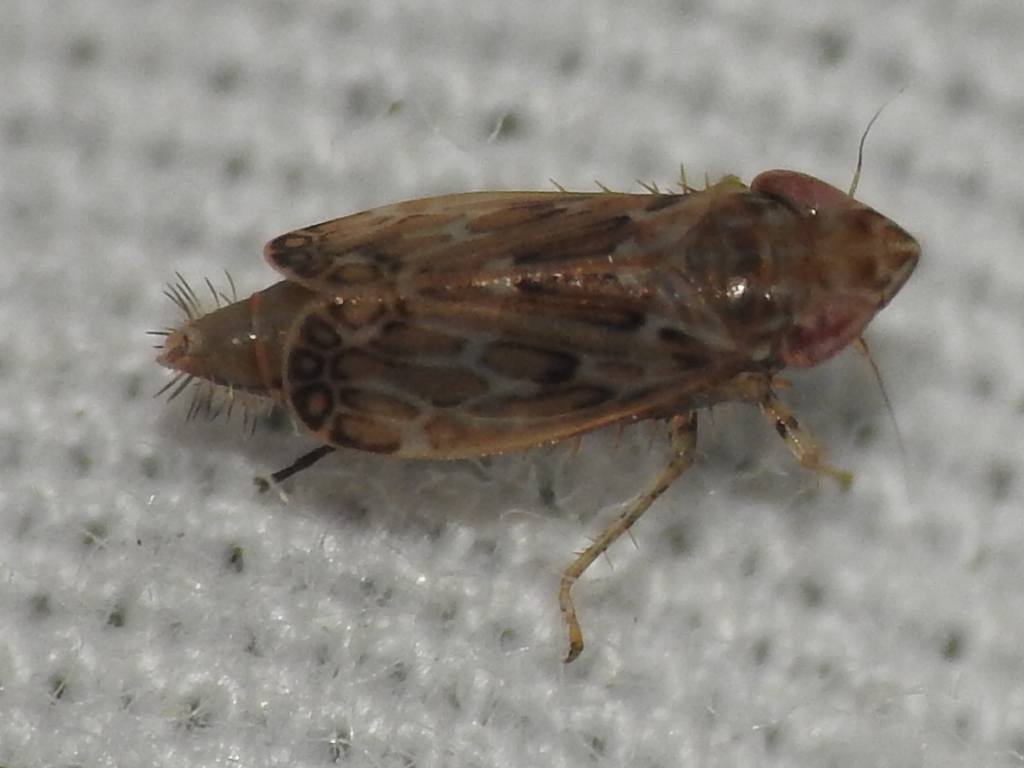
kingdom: Animalia
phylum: Arthropoda
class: Insecta
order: Hemiptera
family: Cicadellidae
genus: Latalus
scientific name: Latalus sayii
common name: Say’s leafhopper
